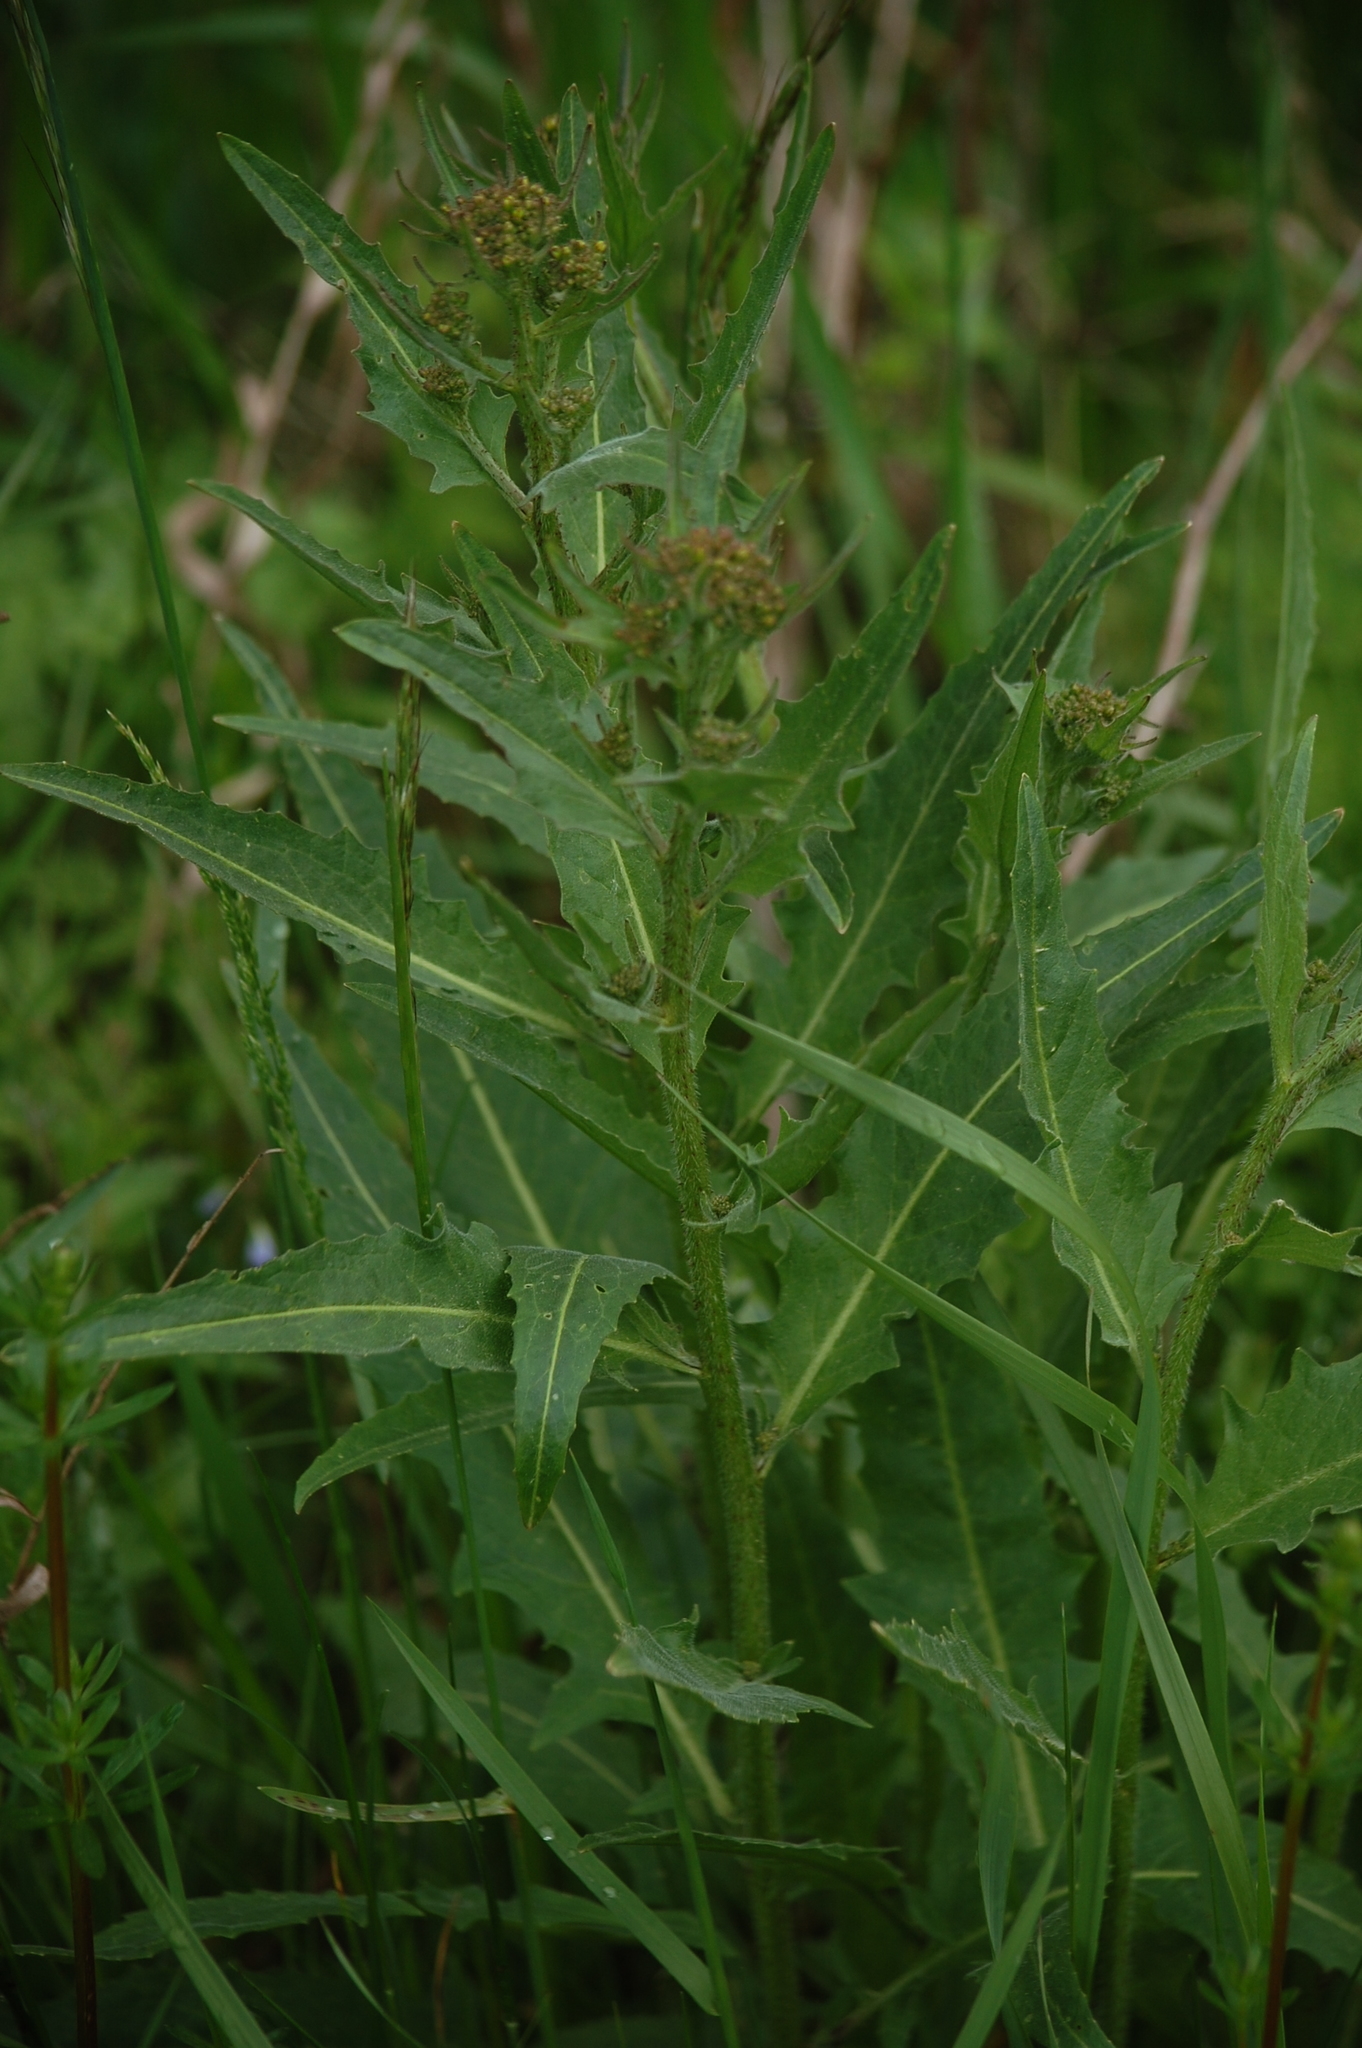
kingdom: Plantae
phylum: Tracheophyta
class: Magnoliopsida
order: Brassicales
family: Brassicaceae
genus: Bunias
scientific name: Bunias orientalis
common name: Warty-cabbage
